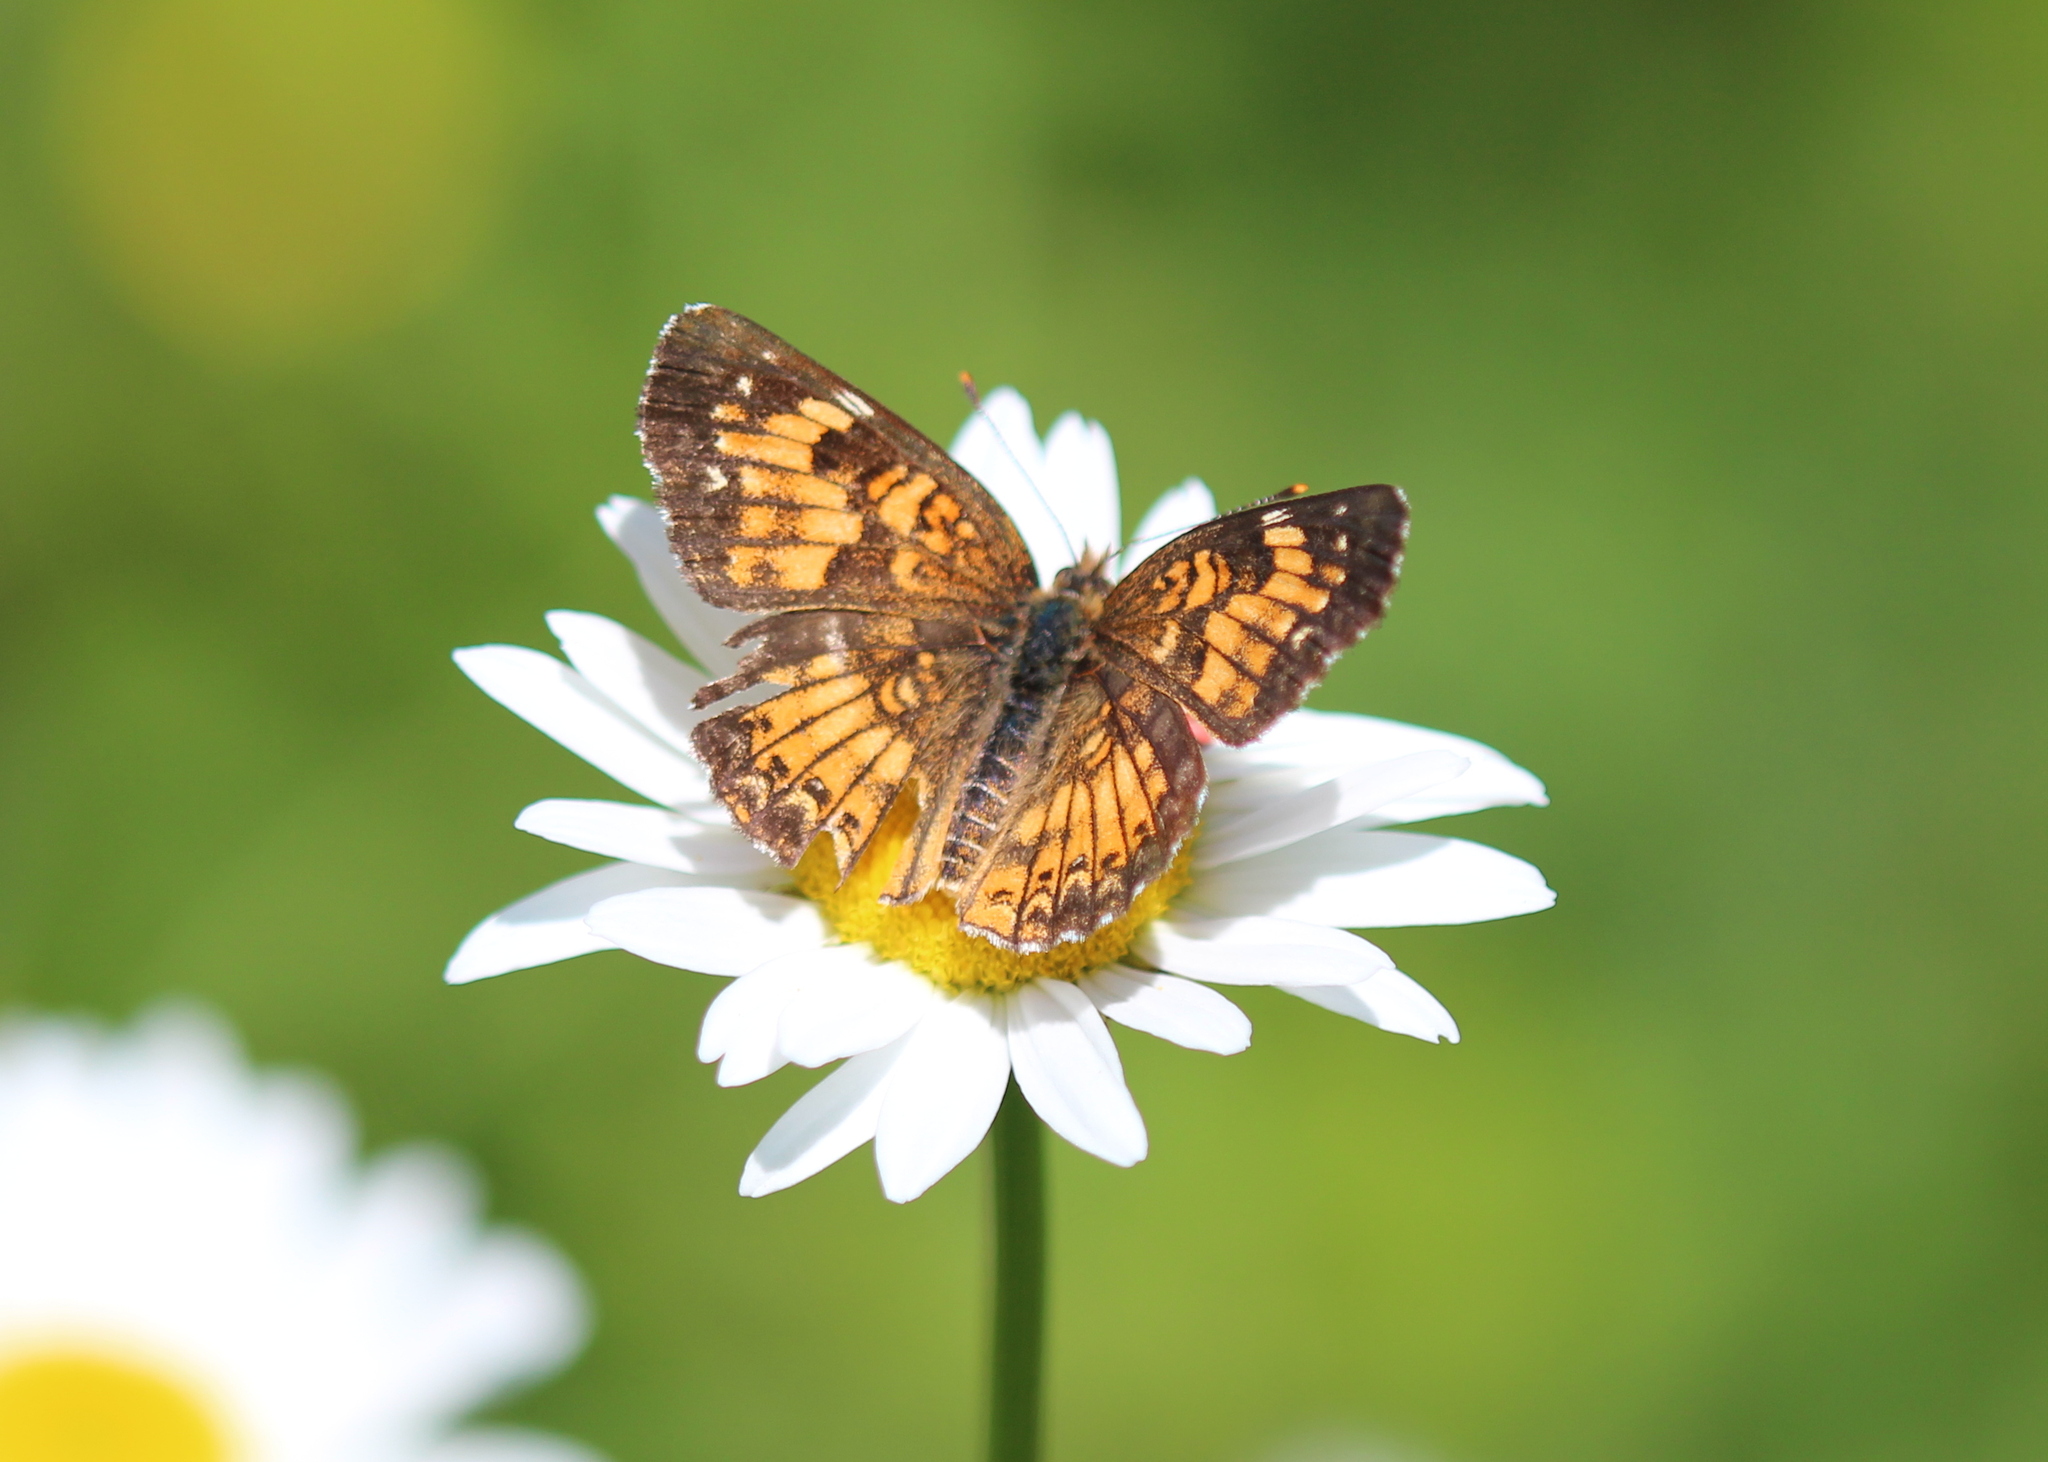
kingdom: Animalia
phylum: Arthropoda
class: Insecta
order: Lepidoptera
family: Nymphalidae
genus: Chlosyne
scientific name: Chlosyne harrisii
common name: Harris's checkerspot
